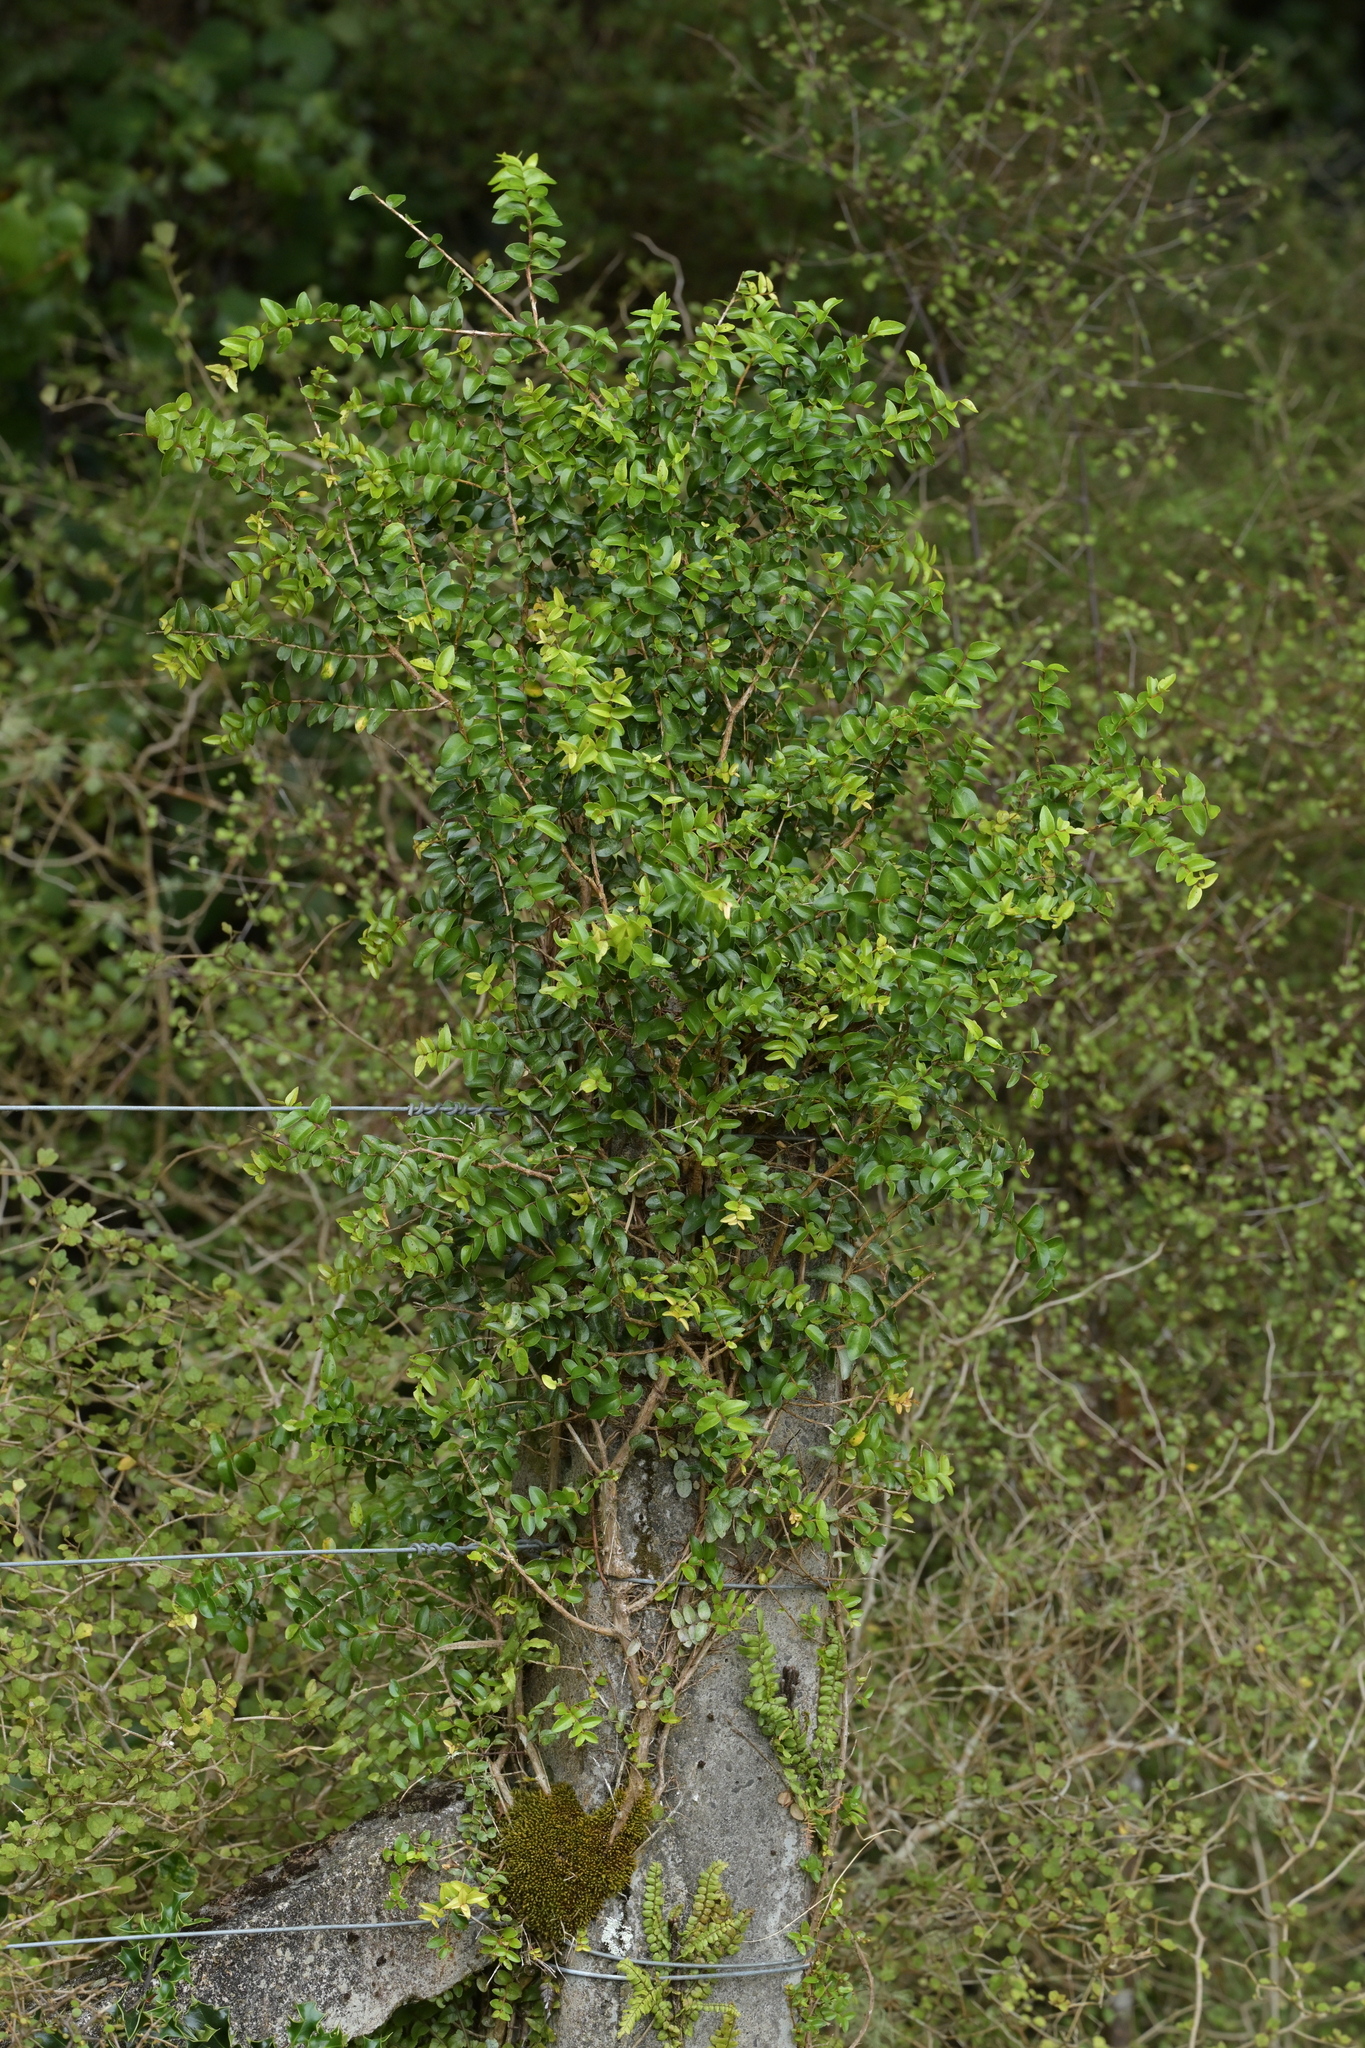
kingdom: Plantae
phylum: Tracheophyta
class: Magnoliopsida
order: Myrtales
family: Myrtaceae
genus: Metrosideros
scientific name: Metrosideros diffusa
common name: Small ratavine
